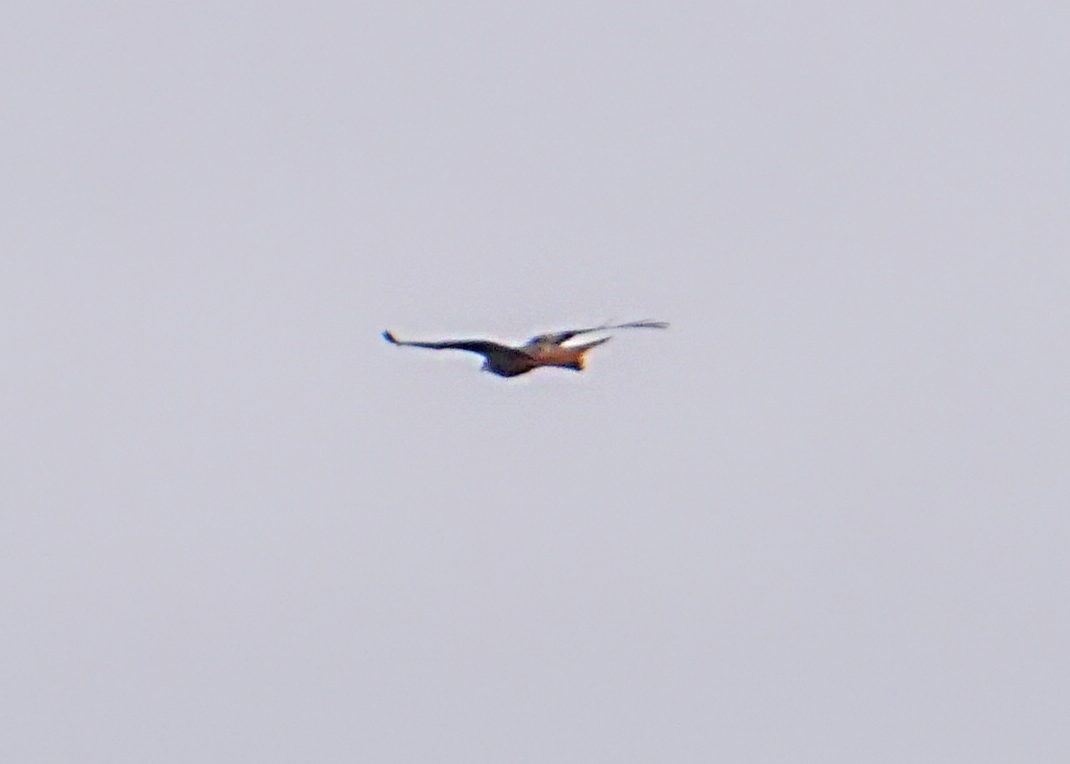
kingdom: Animalia
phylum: Chordata
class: Aves
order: Accipitriformes
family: Accipitridae
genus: Milvus
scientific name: Milvus milvus
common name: Red kite
